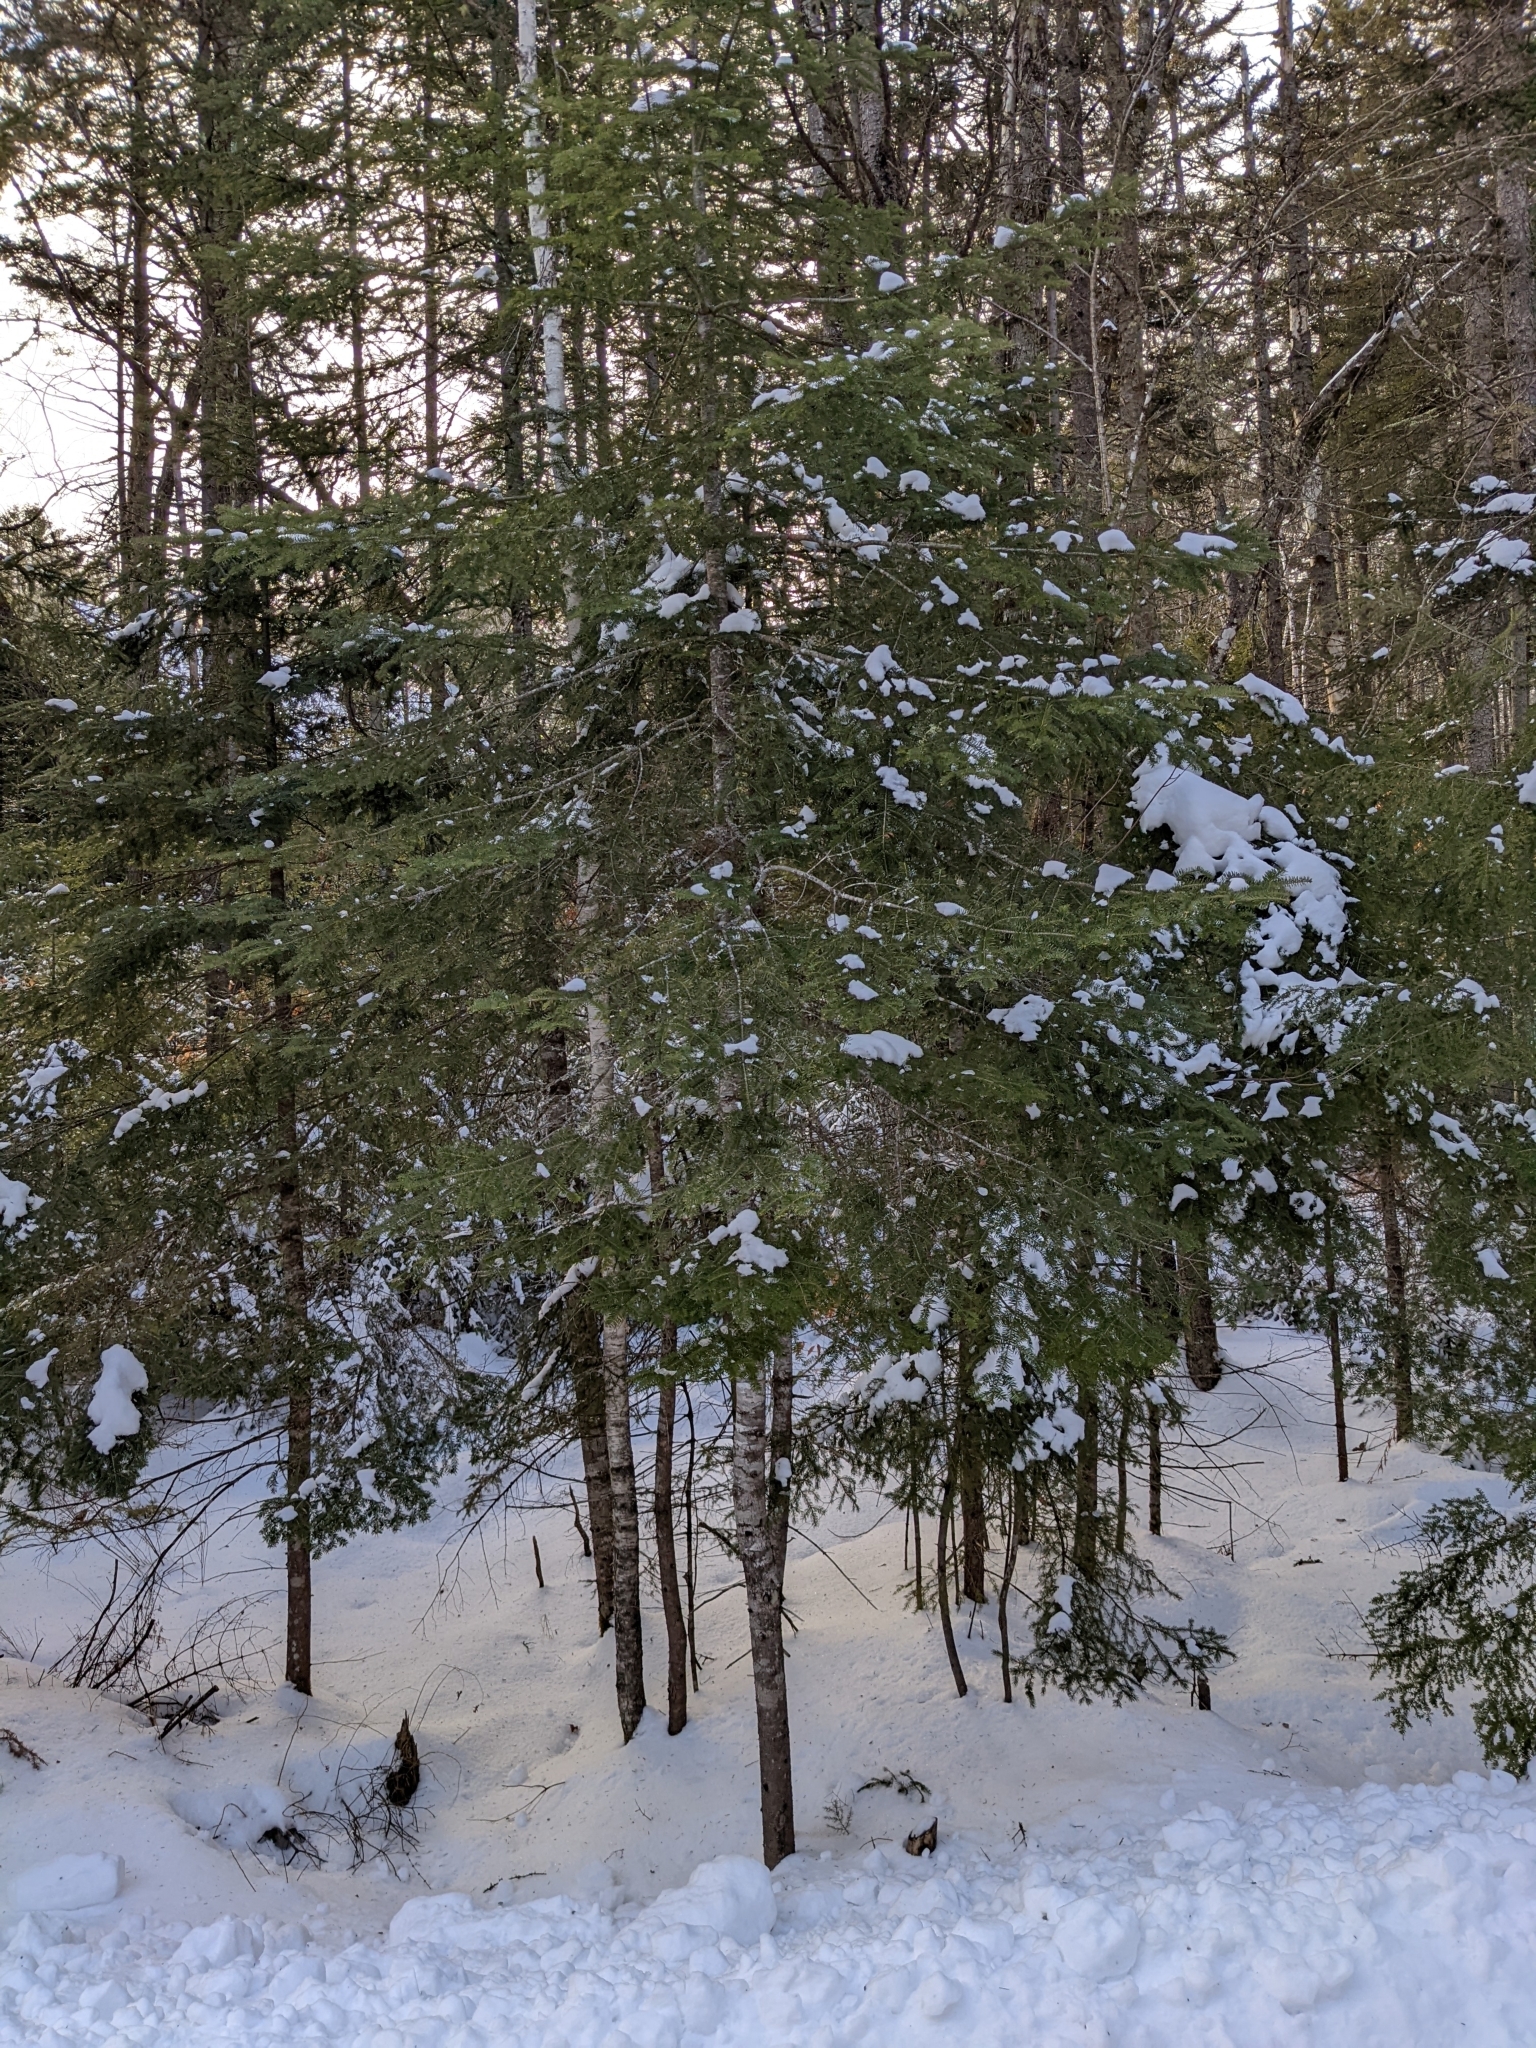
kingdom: Plantae
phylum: Tracheophyta
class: Pinopsida
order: Pinales
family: Pinaceae
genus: Abies
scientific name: Abies balsamea
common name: Balsam fir
